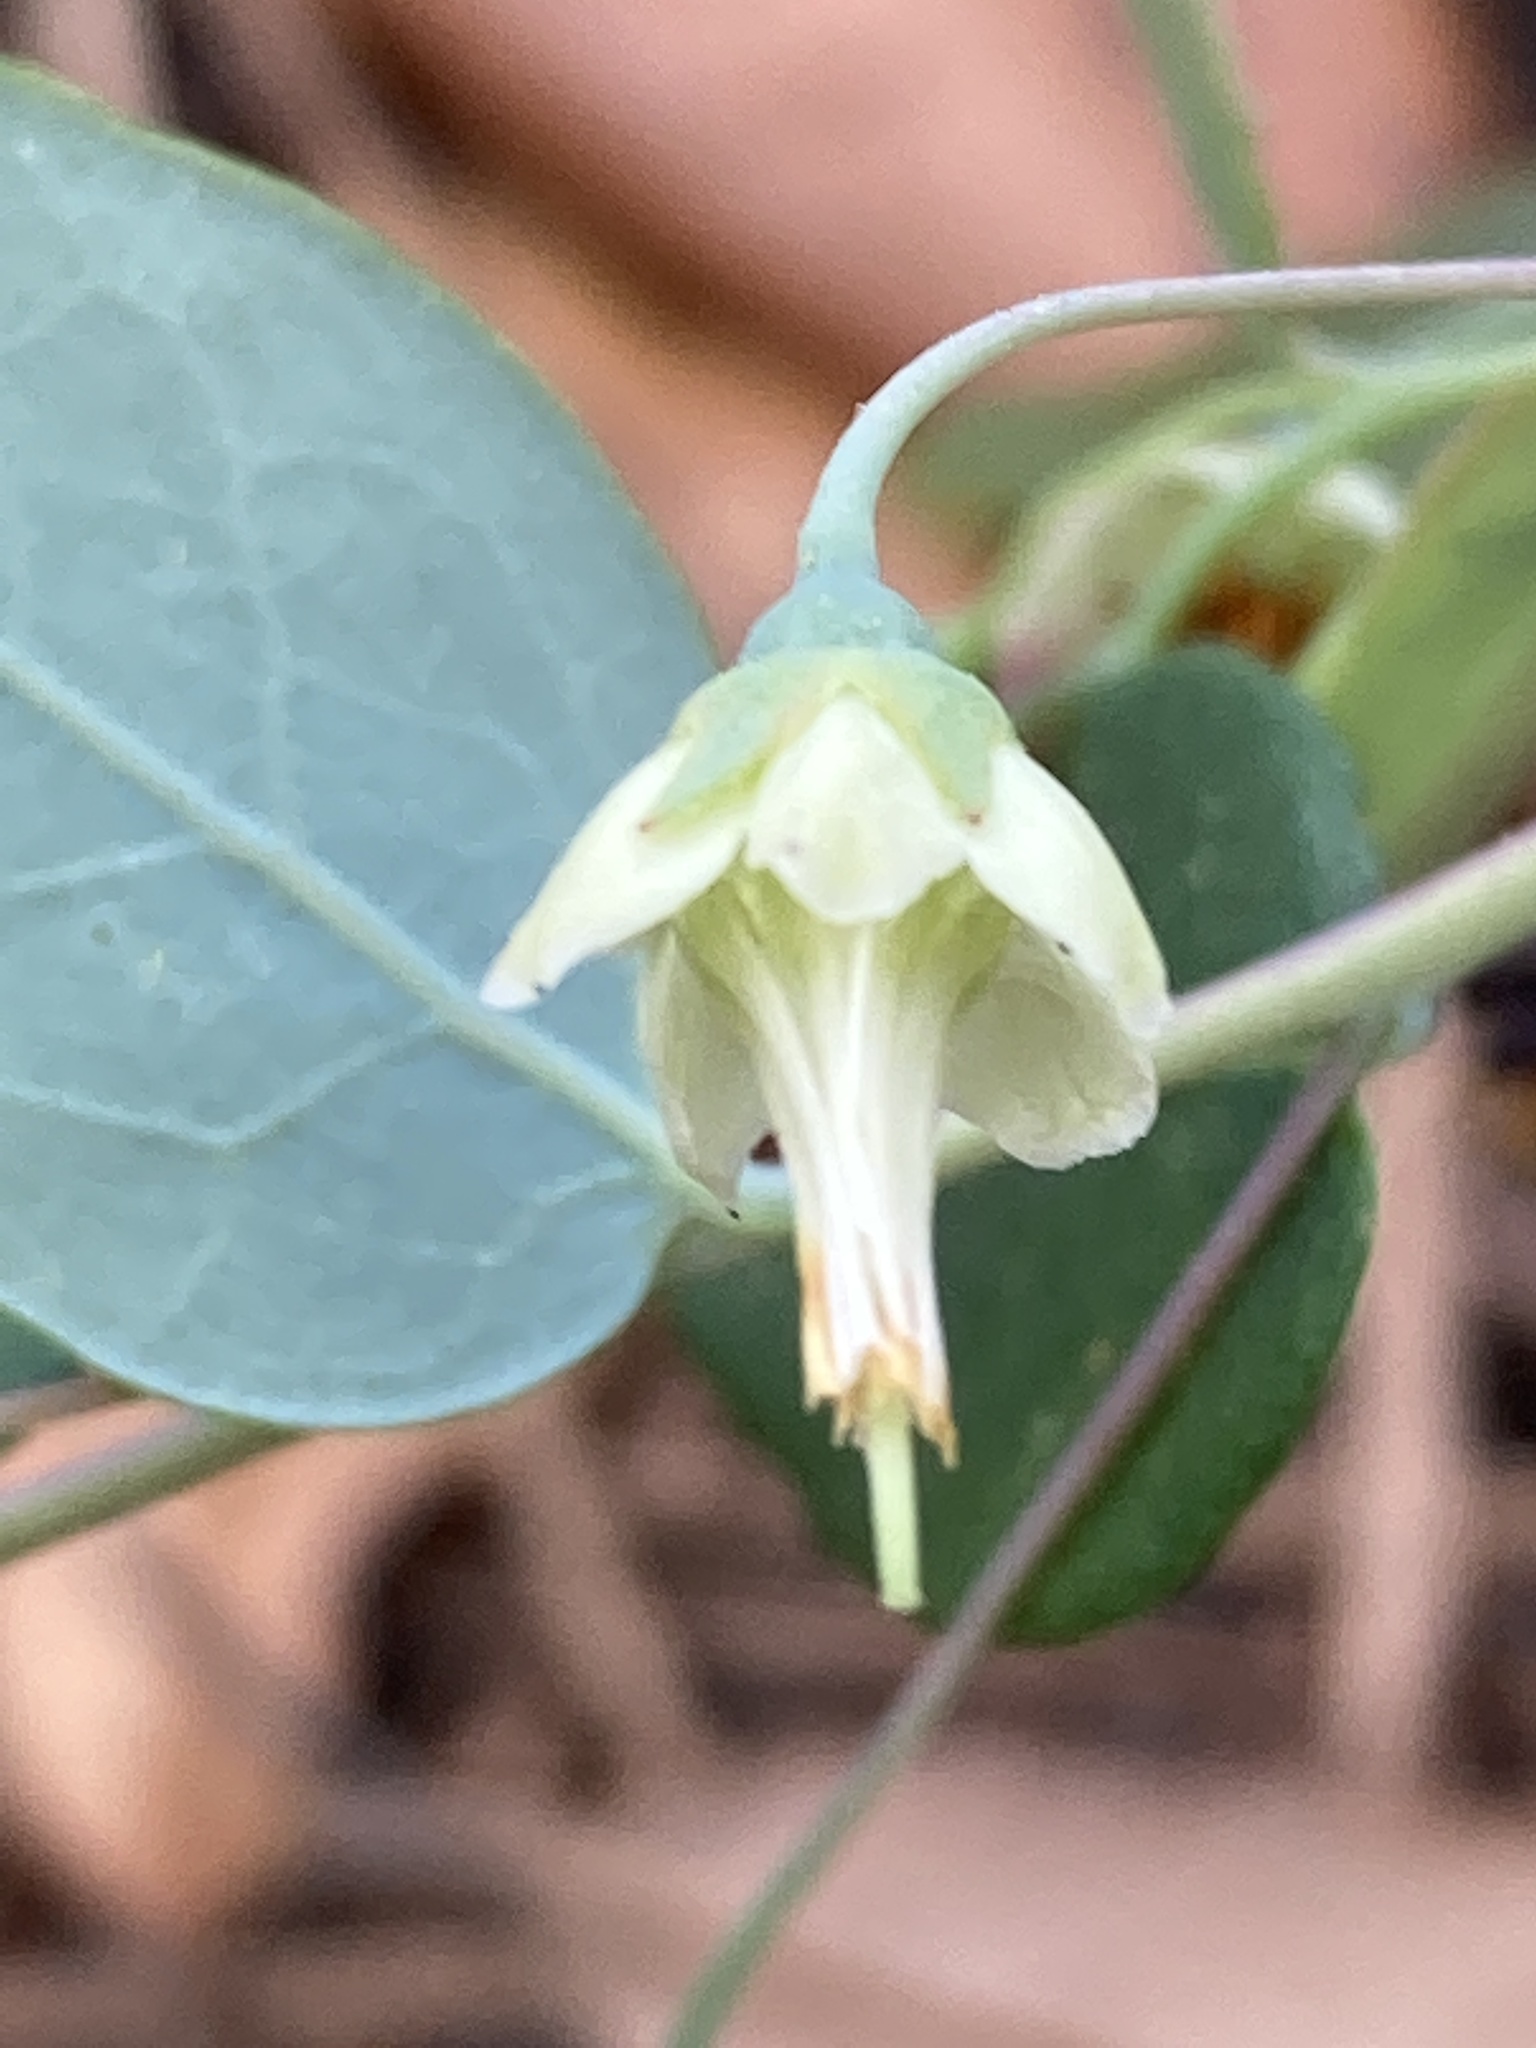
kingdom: Plantae
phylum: Tracheophyta
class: Magnoliopsida
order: Ericales
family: Ericaceae
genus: Vaccinium
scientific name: Vaccinium stamineum
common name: Deerberry
